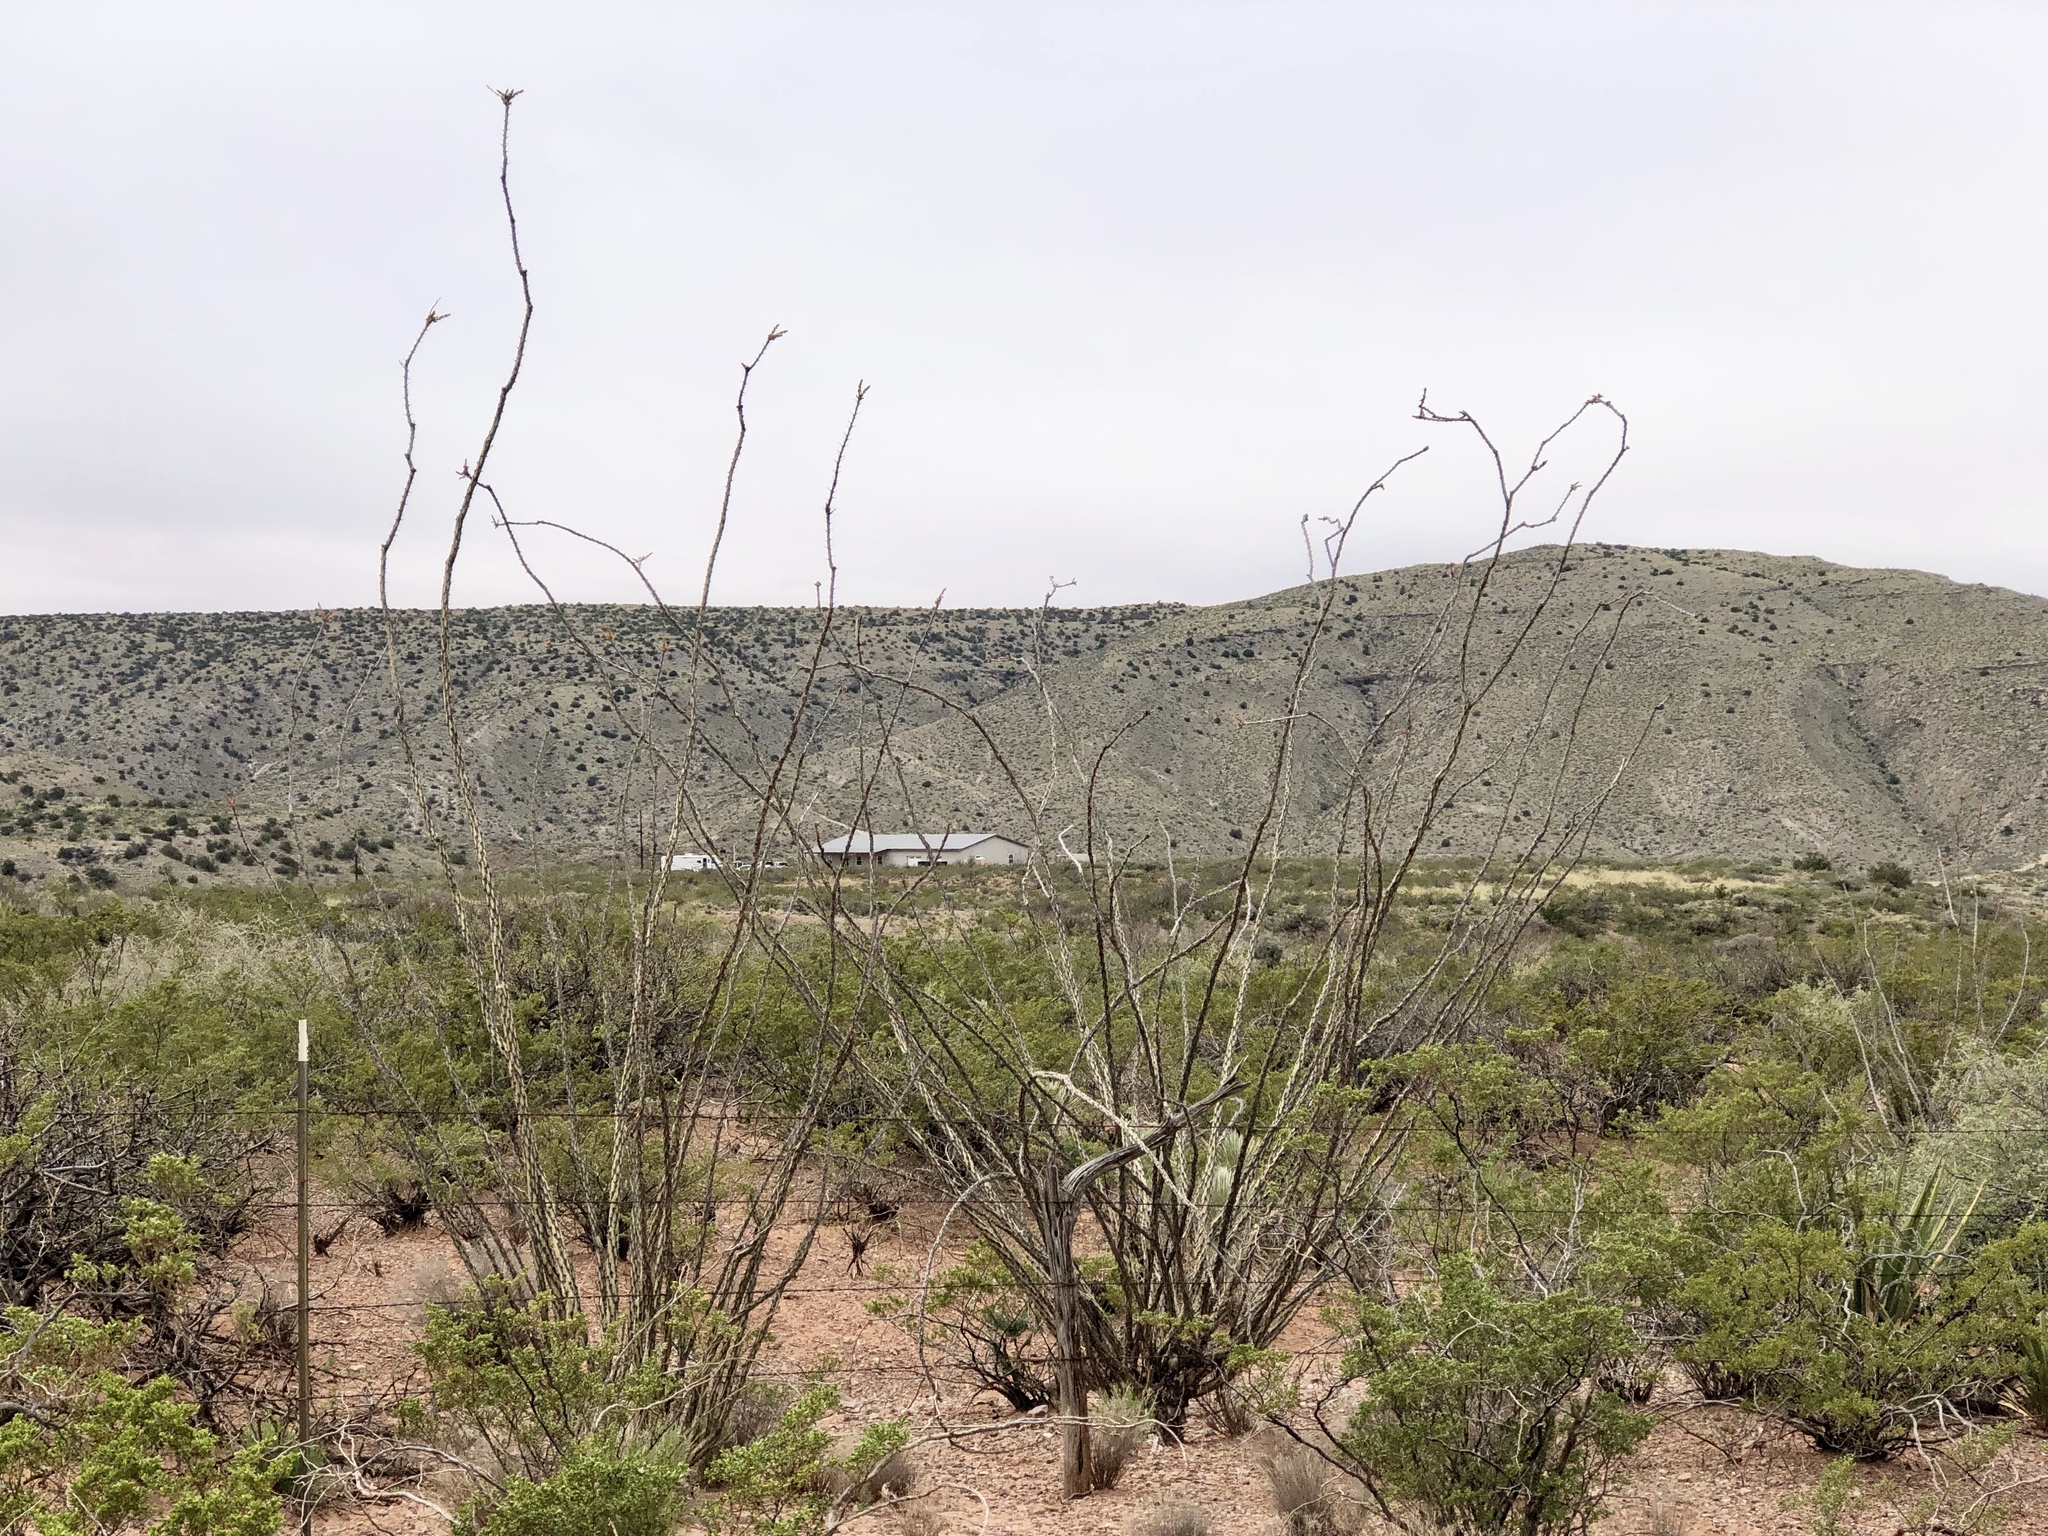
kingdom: Plantae
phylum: Tracheophyta
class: Magnoliopsida
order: Ericales
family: Fouquieriaceae
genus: Fouquieria
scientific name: Fouquieria splendens
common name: Vine-cactus
